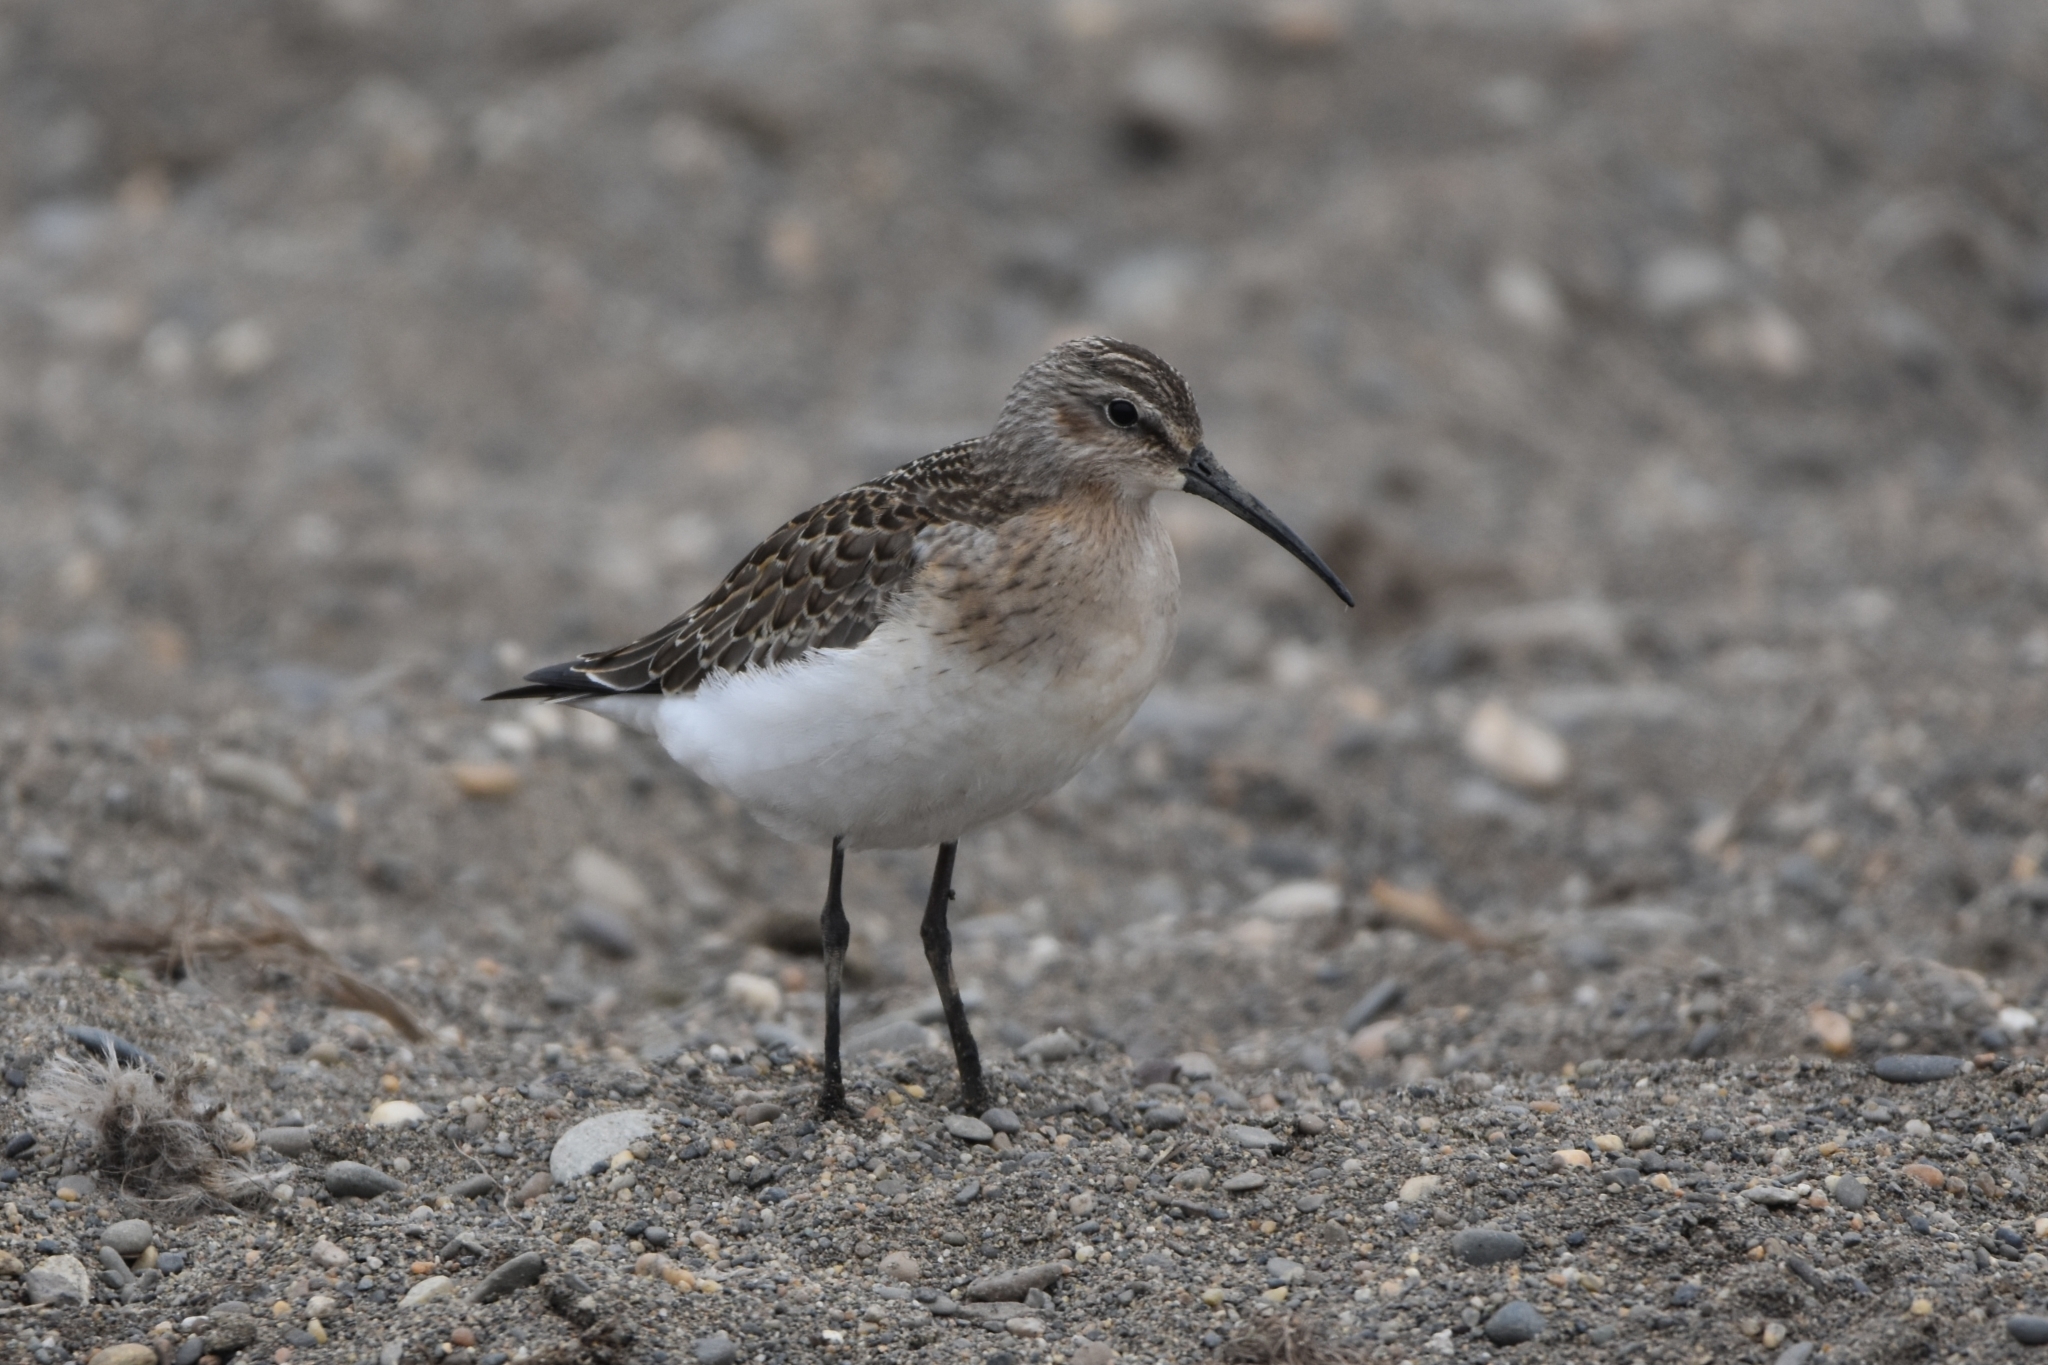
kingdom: Animalia
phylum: Chordata
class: Aves
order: Charadriiformes
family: Scolopacidae
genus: Calidris
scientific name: Calidris ferruginea
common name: Curlew sandpiper
